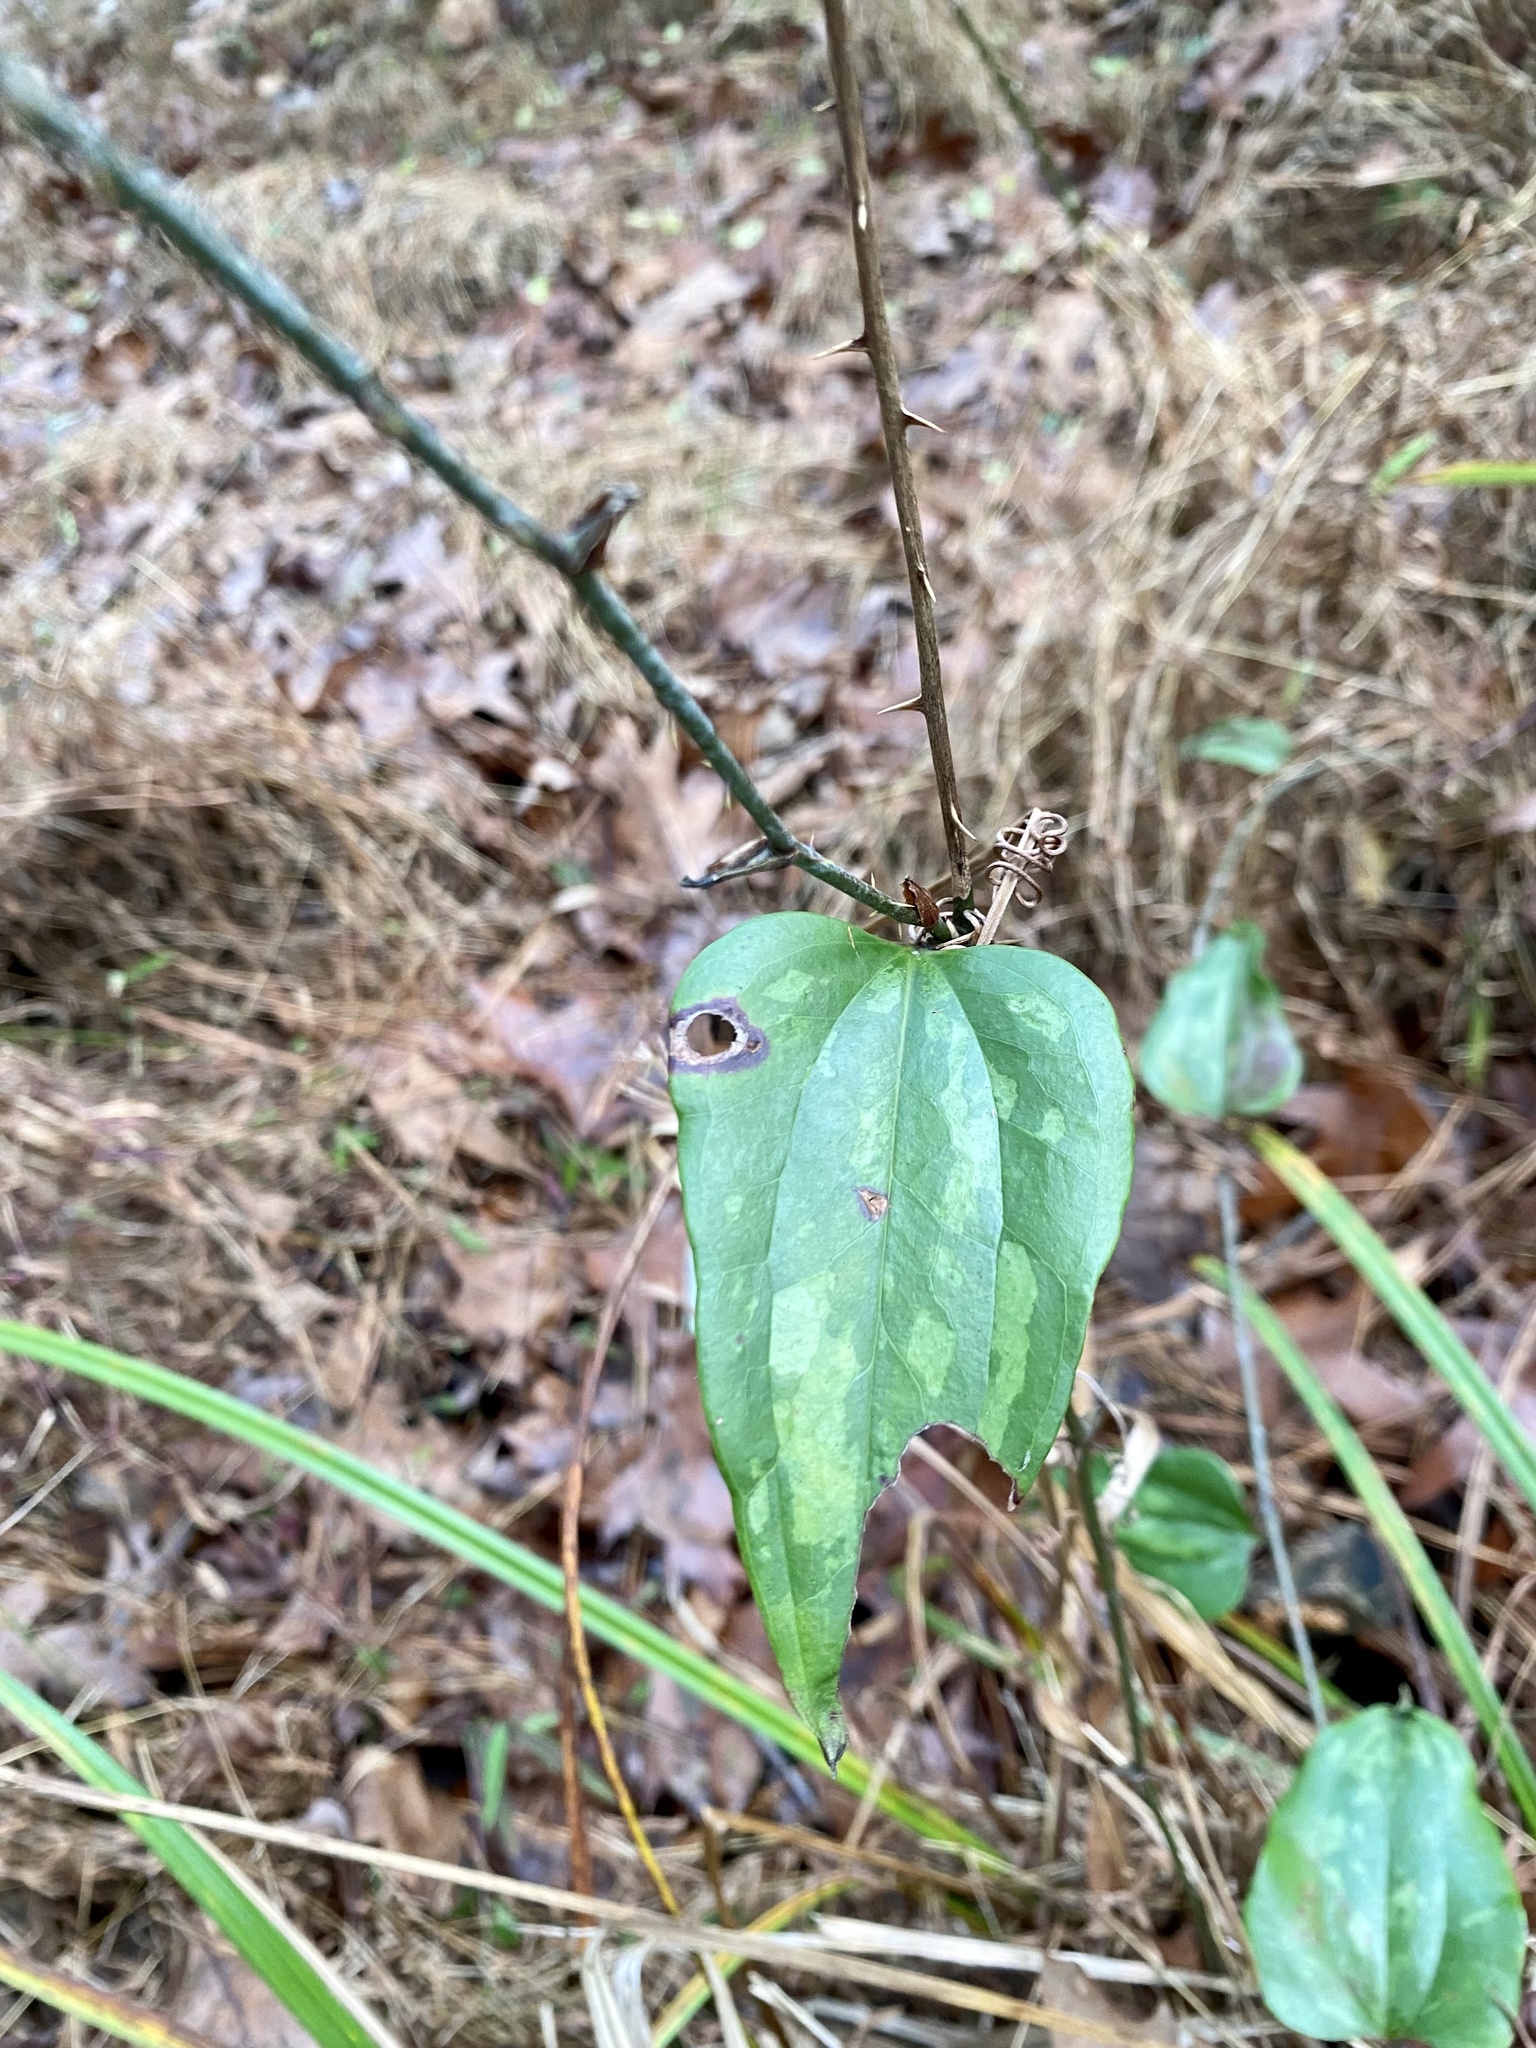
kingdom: Plantae
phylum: Tracheophyta
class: Liliopsida
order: Liliales
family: Smilacaceae
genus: Smilax
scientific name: Smilax glauca
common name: Cat greenbrier
